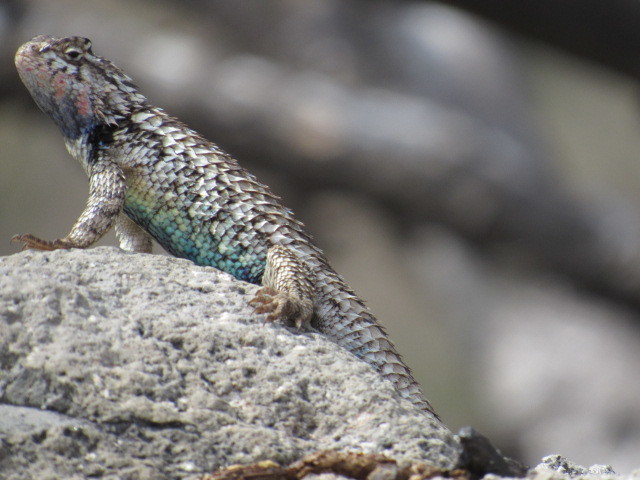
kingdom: Animalia
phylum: Chordata
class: Squamata
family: Phrynosomatidae
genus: Sceloporus
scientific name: Sceloporus spinosus
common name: Blue-spotted spiny lizard [caeruleopunctatus]
